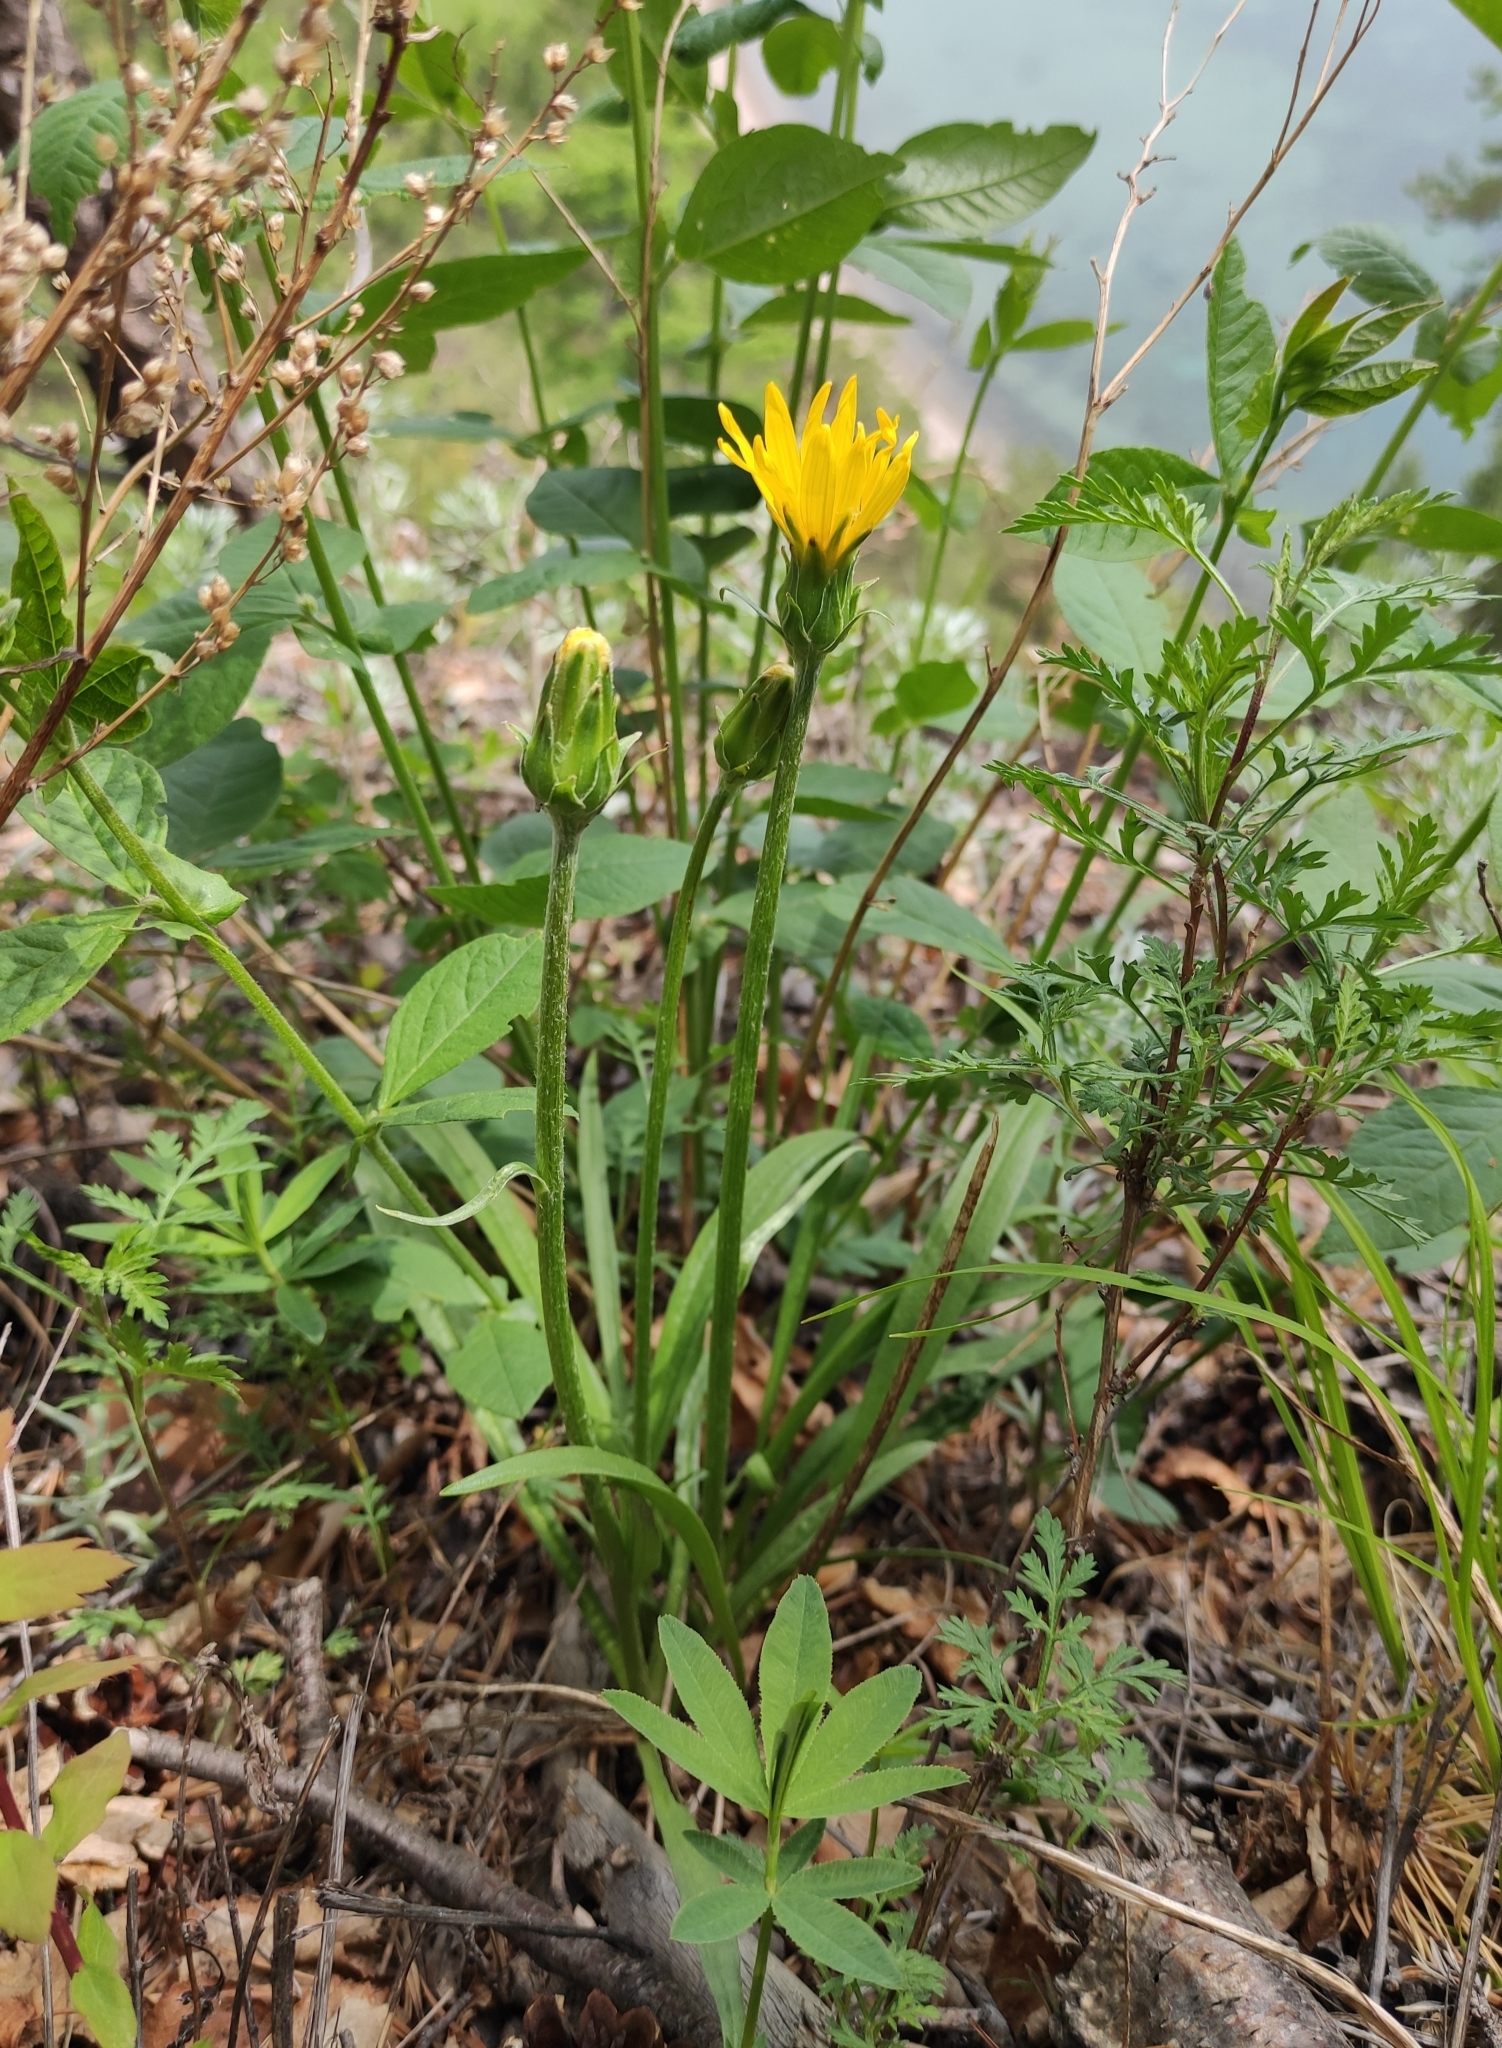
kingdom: Plantae
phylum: Tracheophyta
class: Magnoliopsida
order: Asterales
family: Asteraceae
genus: Scorzonera
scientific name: Scorzonera radiata
